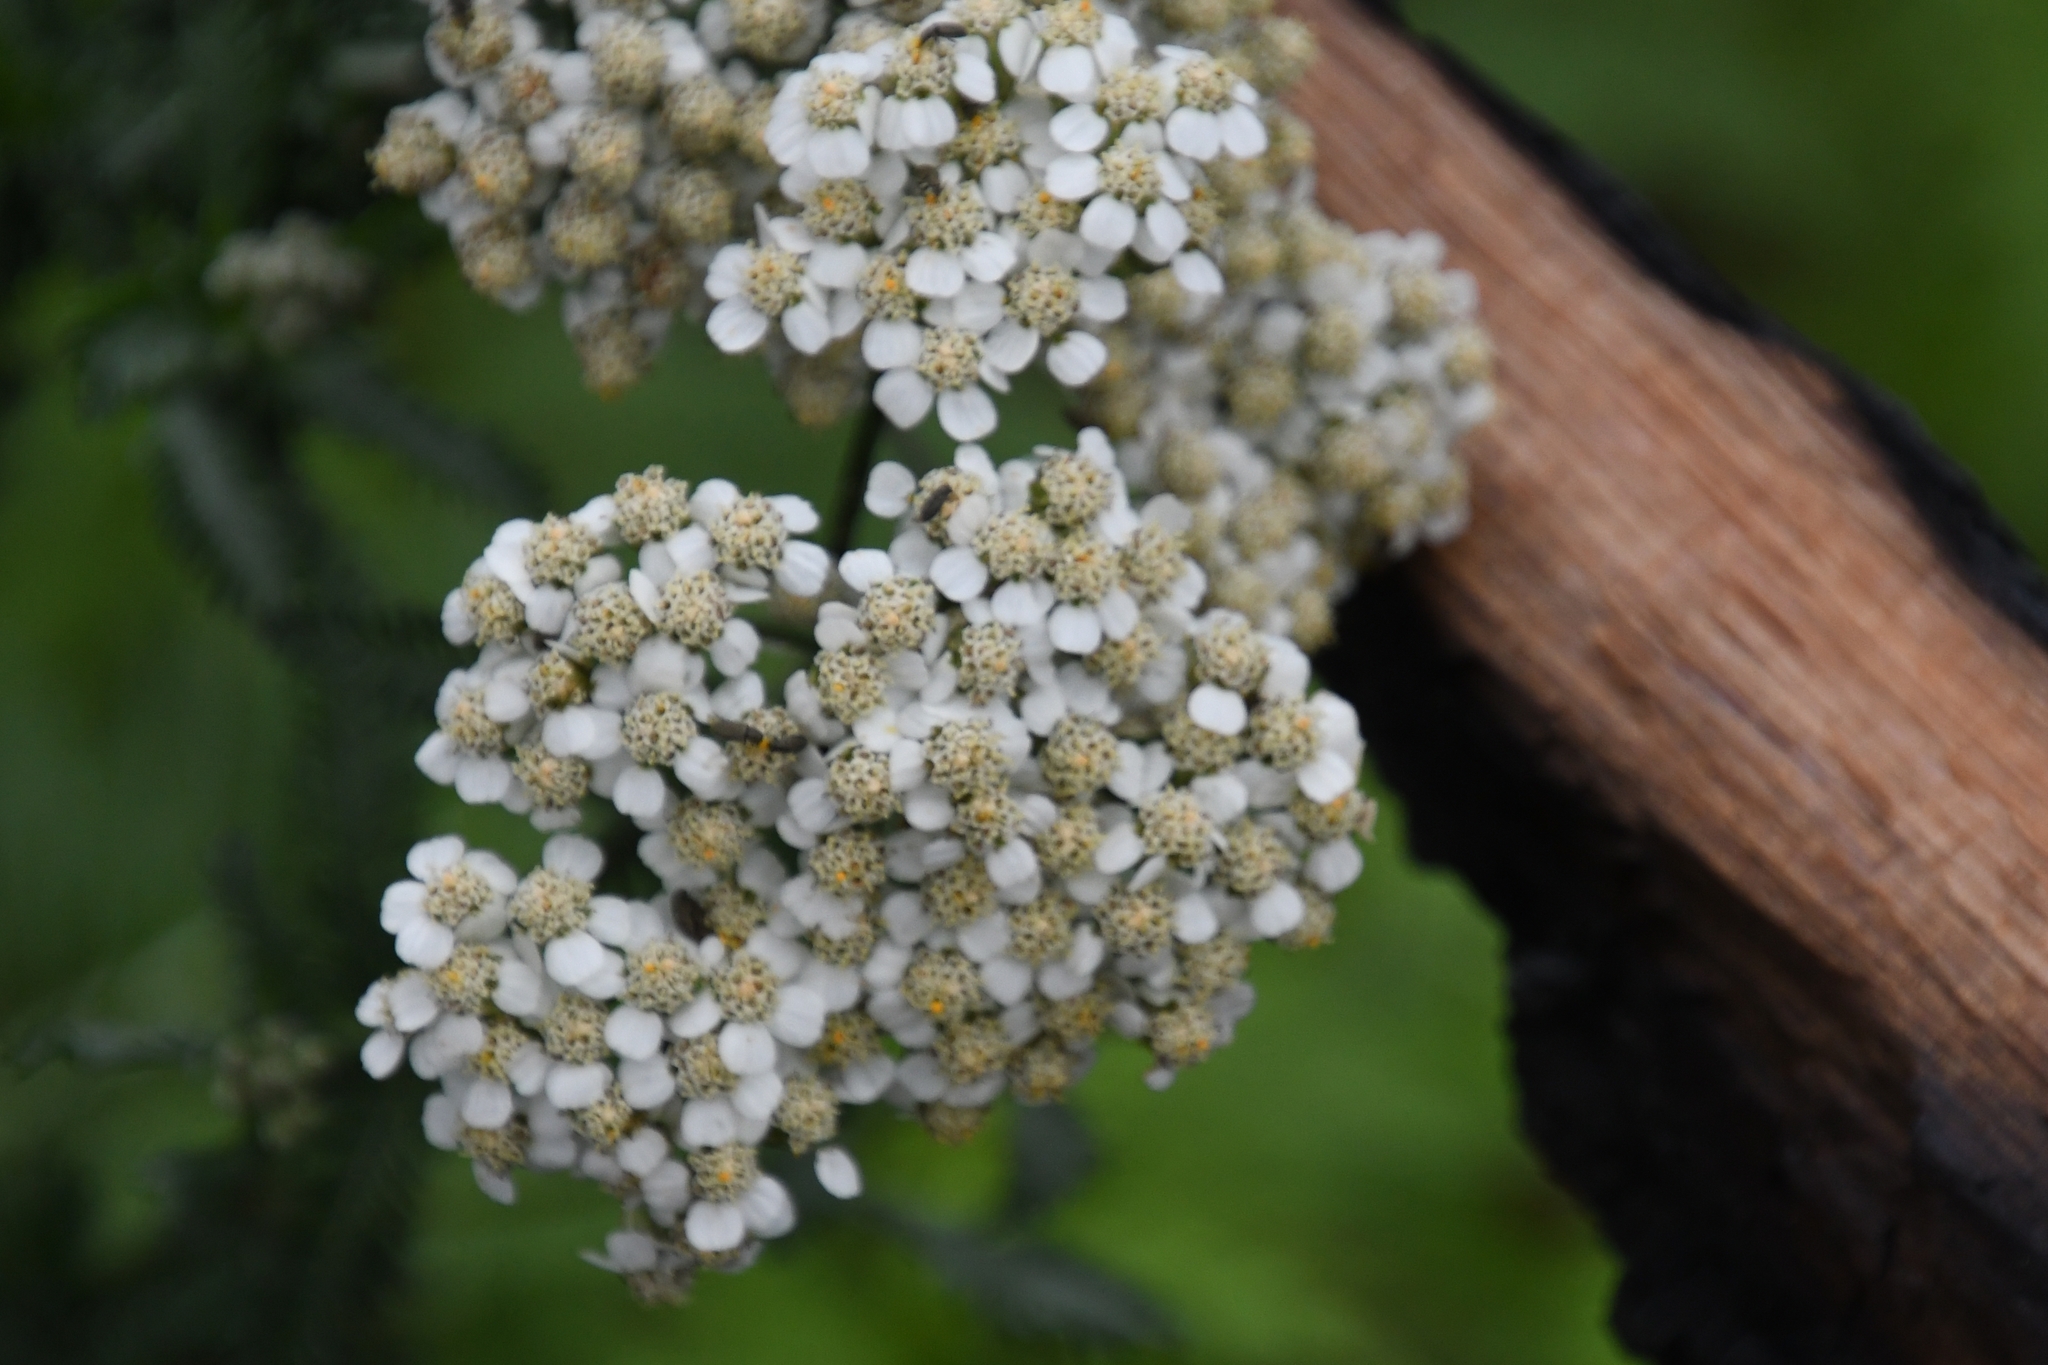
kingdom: Plantae
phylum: Tracheophyta
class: Magnoliopsida
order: Asterales
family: Asteraceae
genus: Achillea
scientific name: Achillea millefolium
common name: Yarrow
